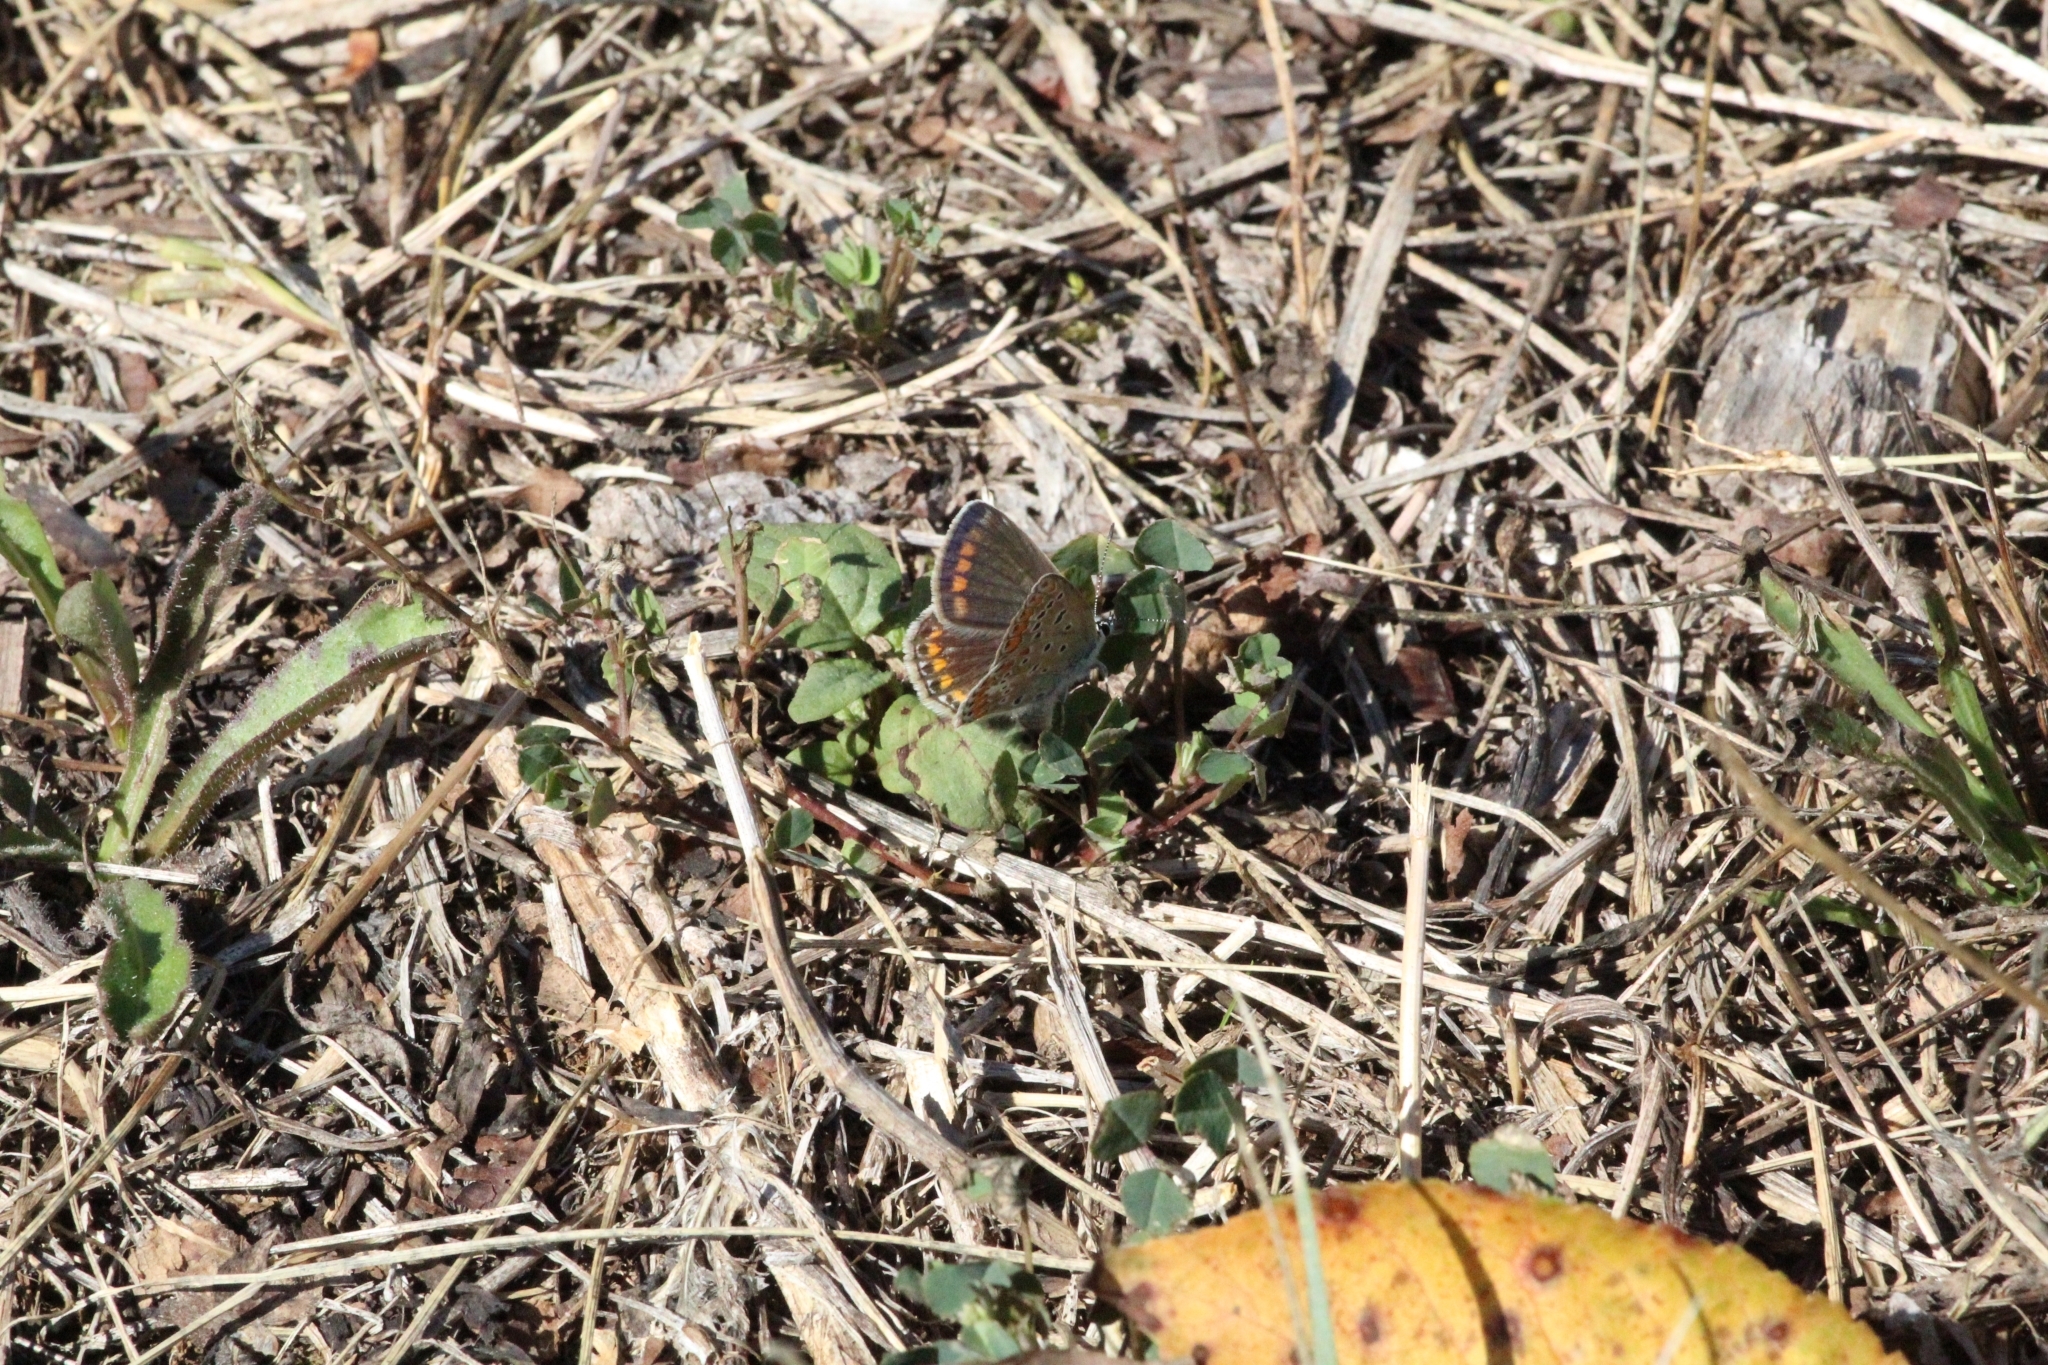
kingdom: Animalia
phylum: Arthropoda
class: Insecta
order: Lepidoptera
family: Lycaenidae
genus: Polyommatus
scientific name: Polyommatus icarus
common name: Common blue
